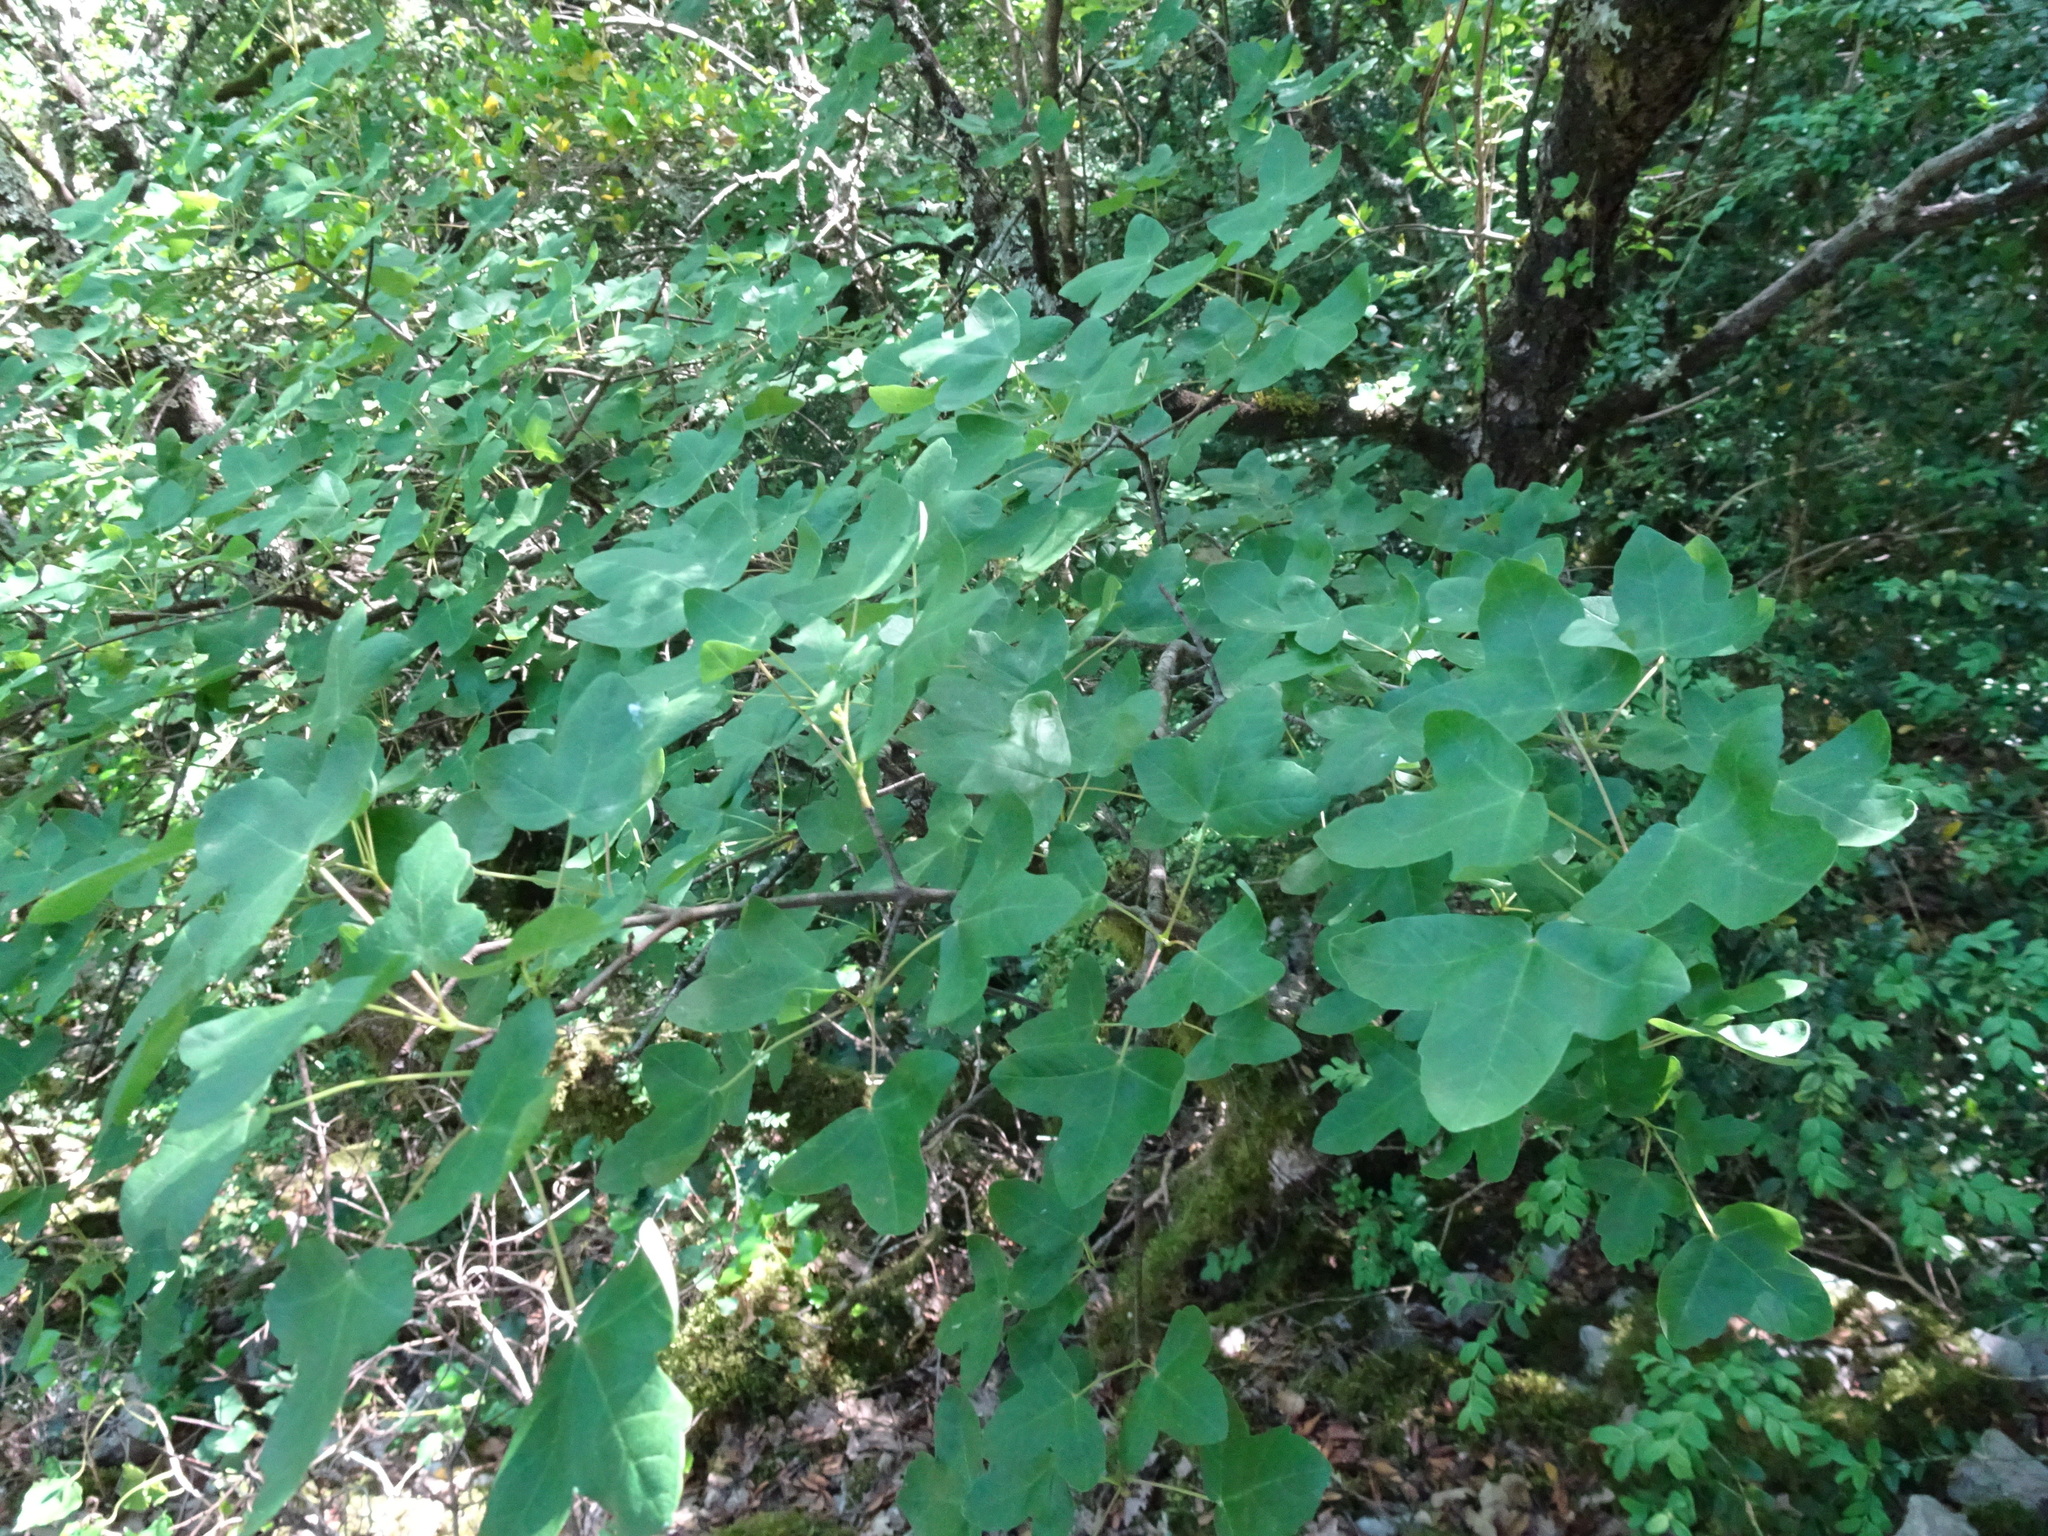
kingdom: Plantae
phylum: Tracheophyta
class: Magnoliopsida
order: Sapindales
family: Sapindaceae
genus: Acer
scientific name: Acer monspessulanum
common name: Montpellier maple
